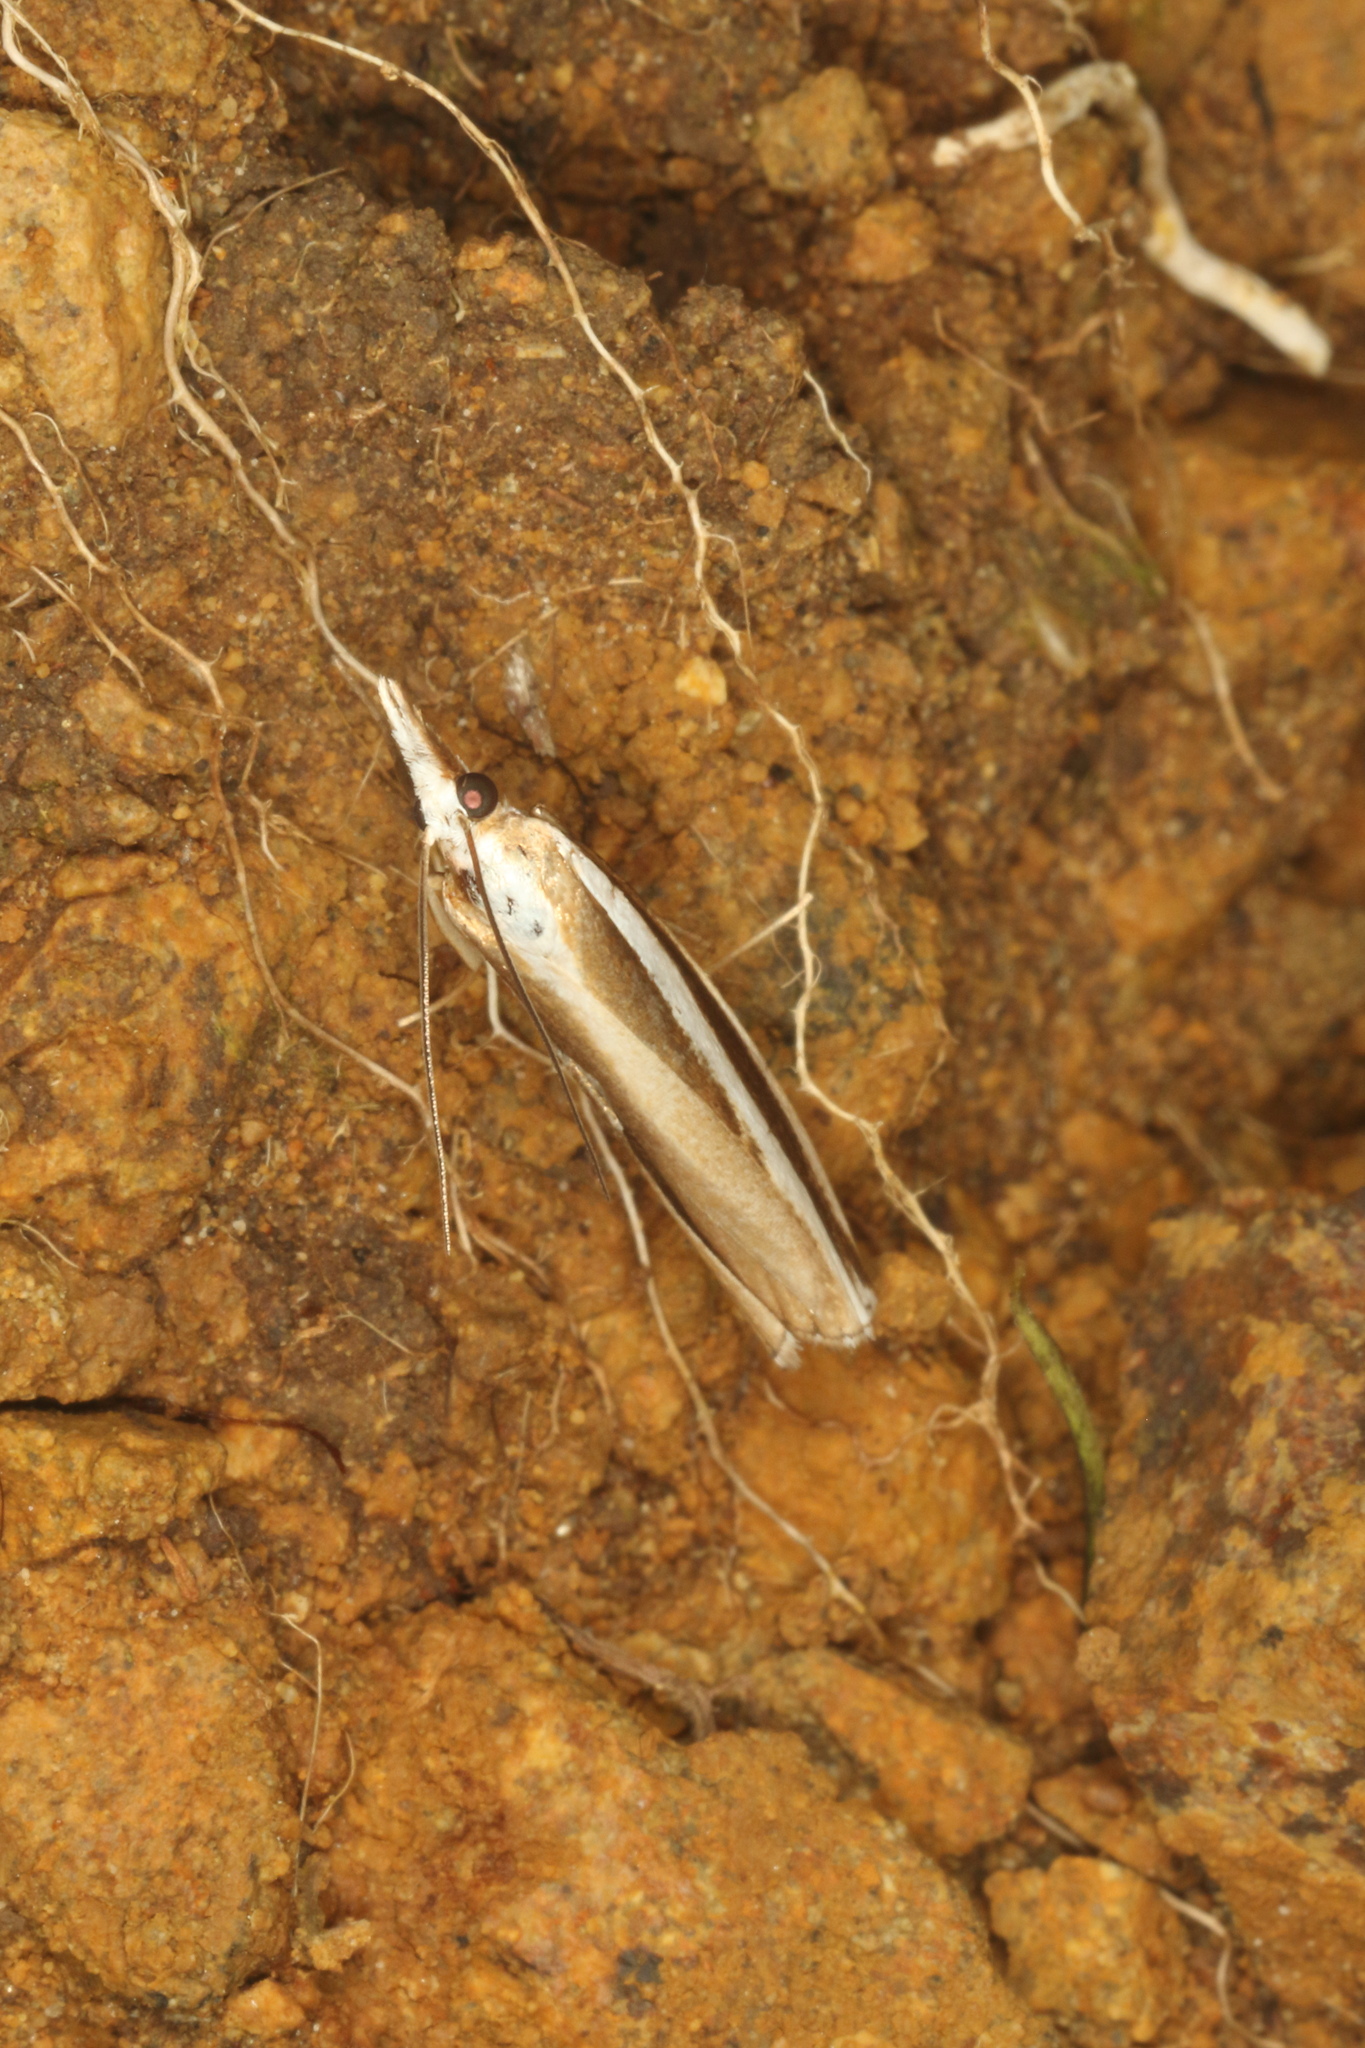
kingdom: Animalia
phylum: Arthropoda
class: Insecta
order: Lepidoptera
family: Crambidae
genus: Orocrambus
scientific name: Orocrambus apicellus
